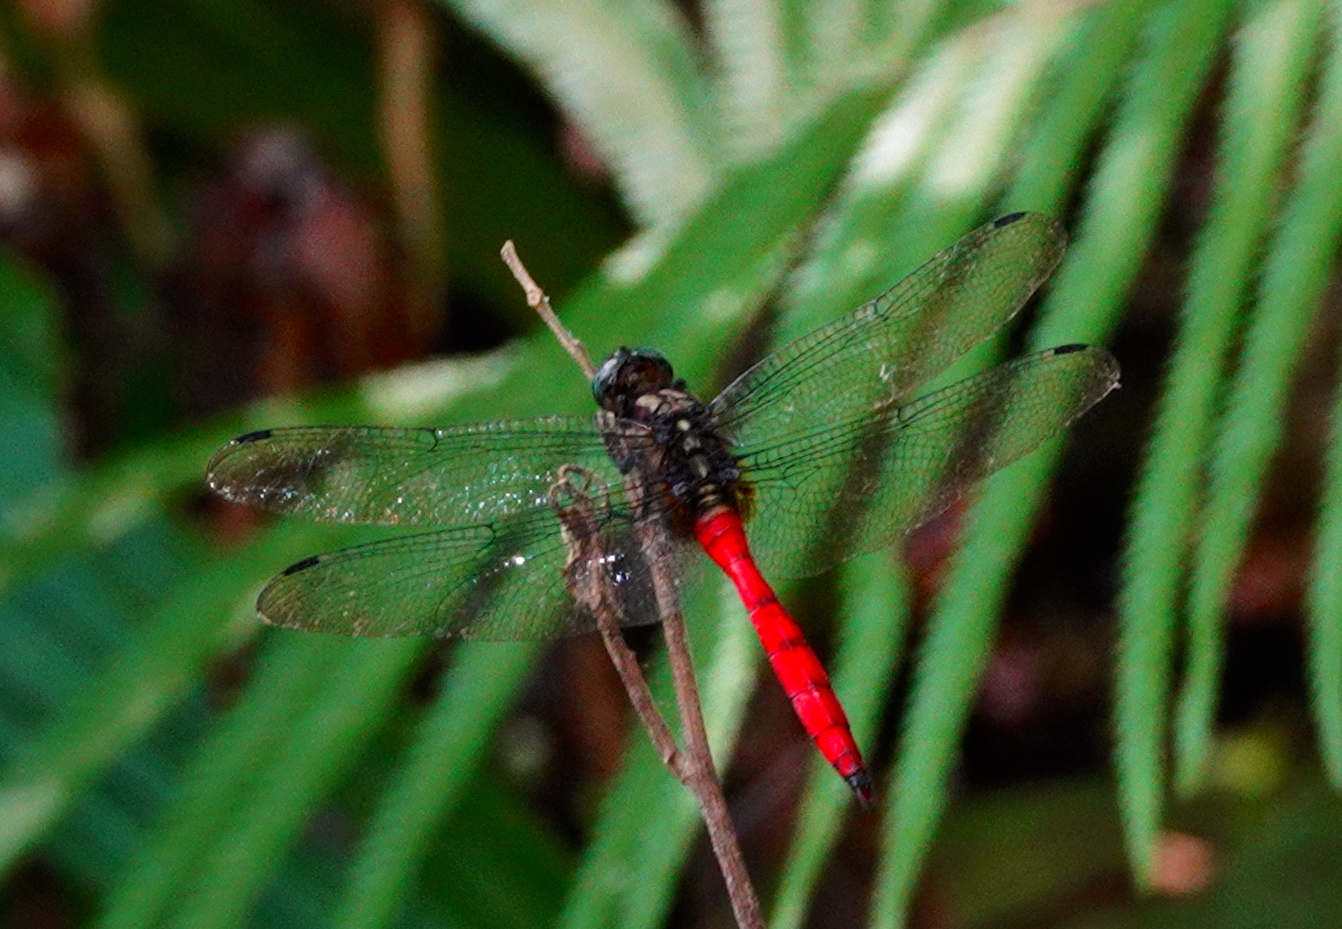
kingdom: Animalia
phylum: Arthropoda
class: Insecta
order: Odonata
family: Libellulidae
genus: Orthetrum
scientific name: Orthetrum villosovittatum
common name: Firery skimmer
